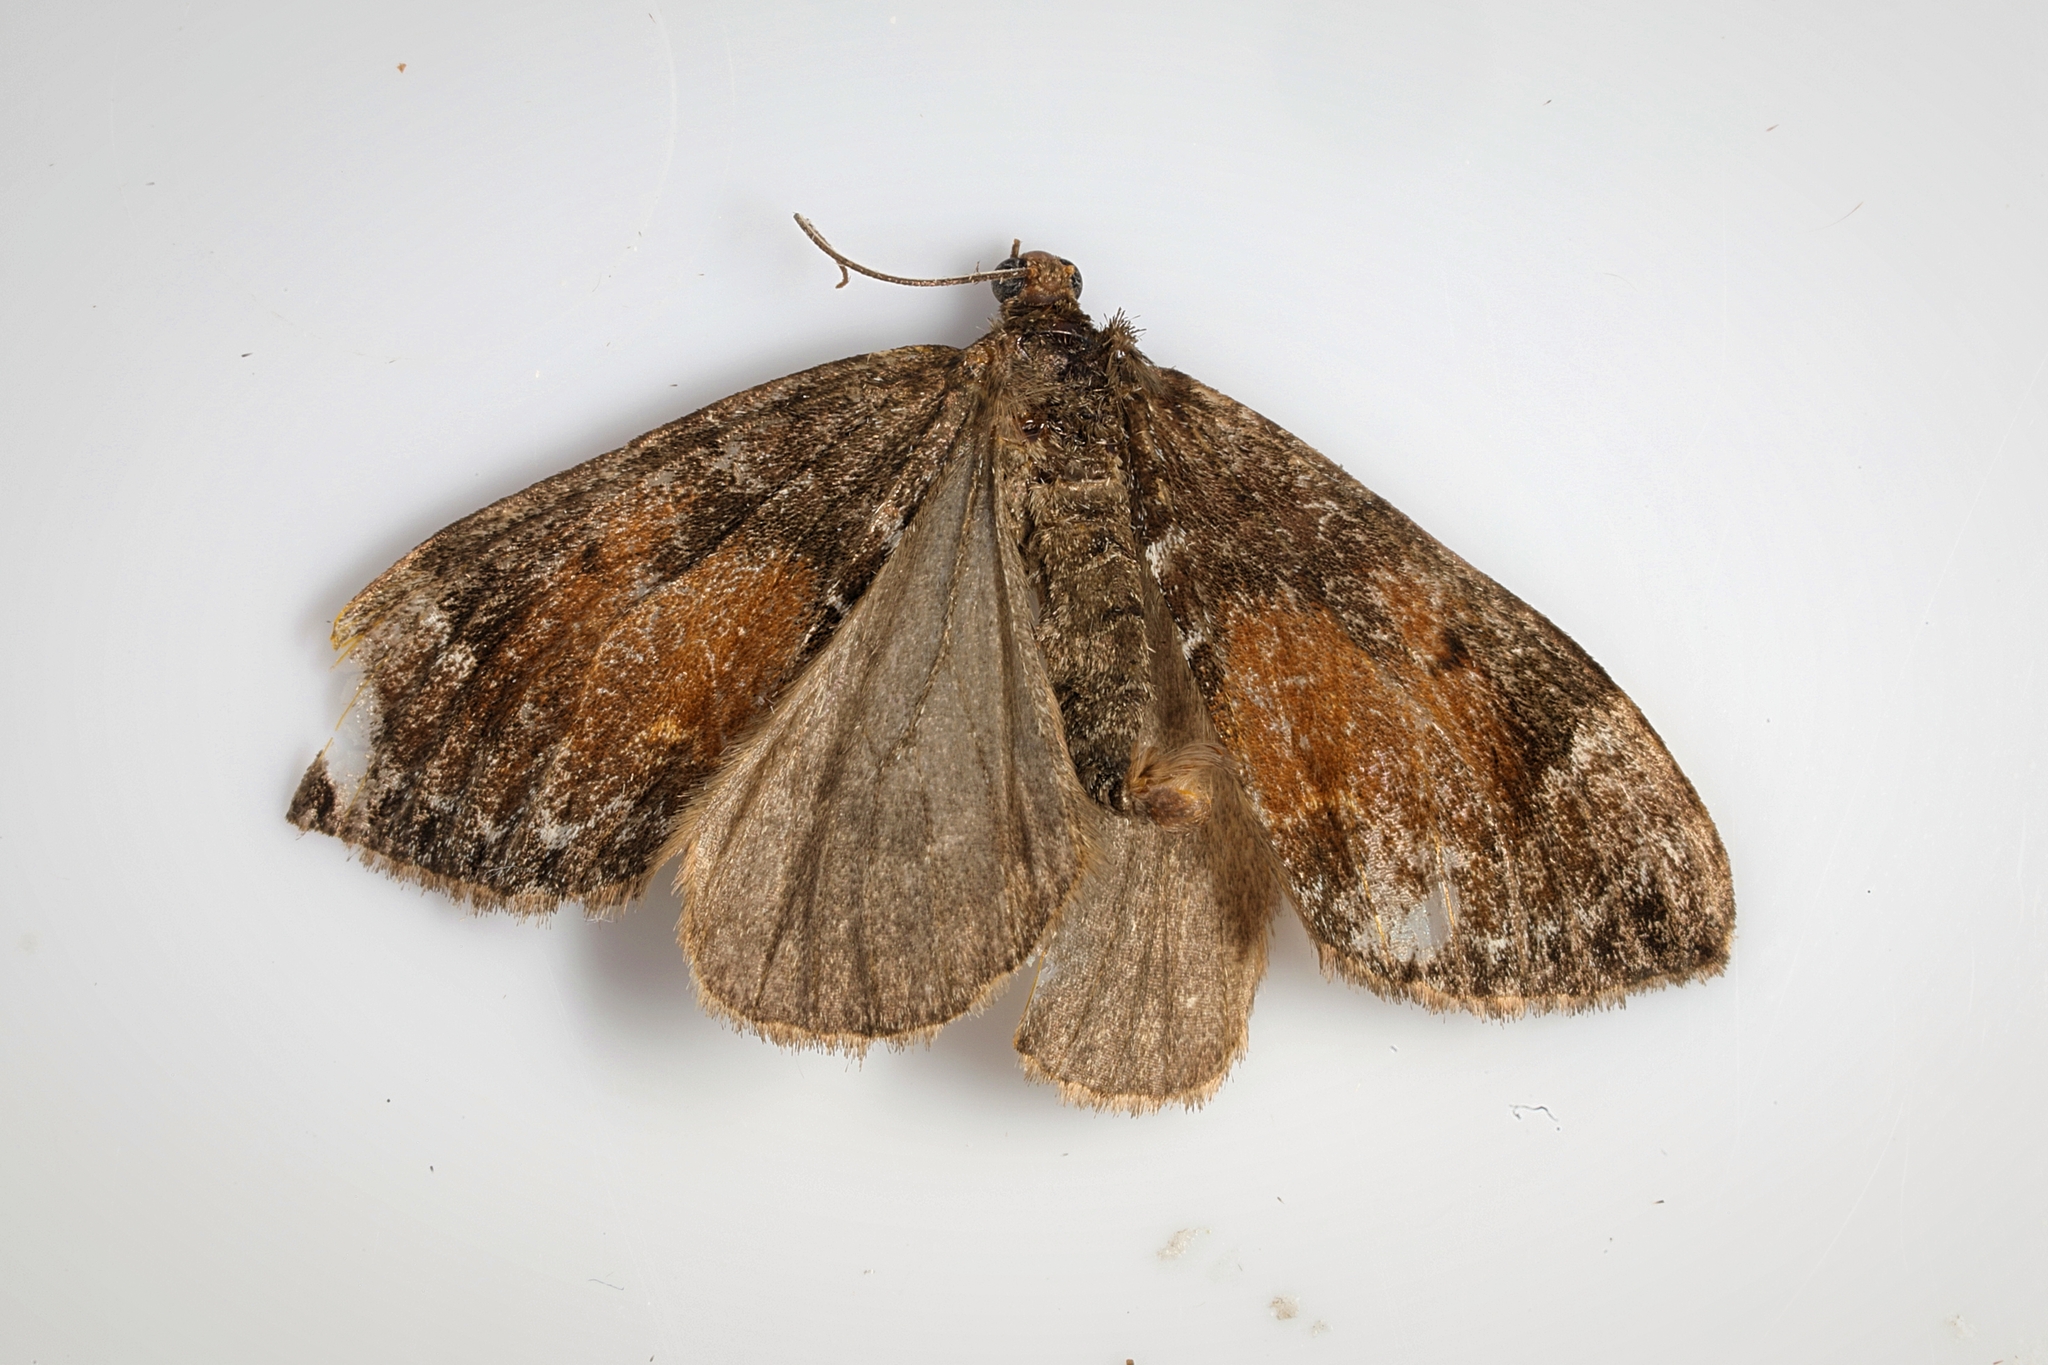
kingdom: Animalia
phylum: Arthropoda
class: Insecta
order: Lepidoptera
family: Geometridae
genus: Dysstroma
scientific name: Dysstroma truncata
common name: Common marbled carpet
